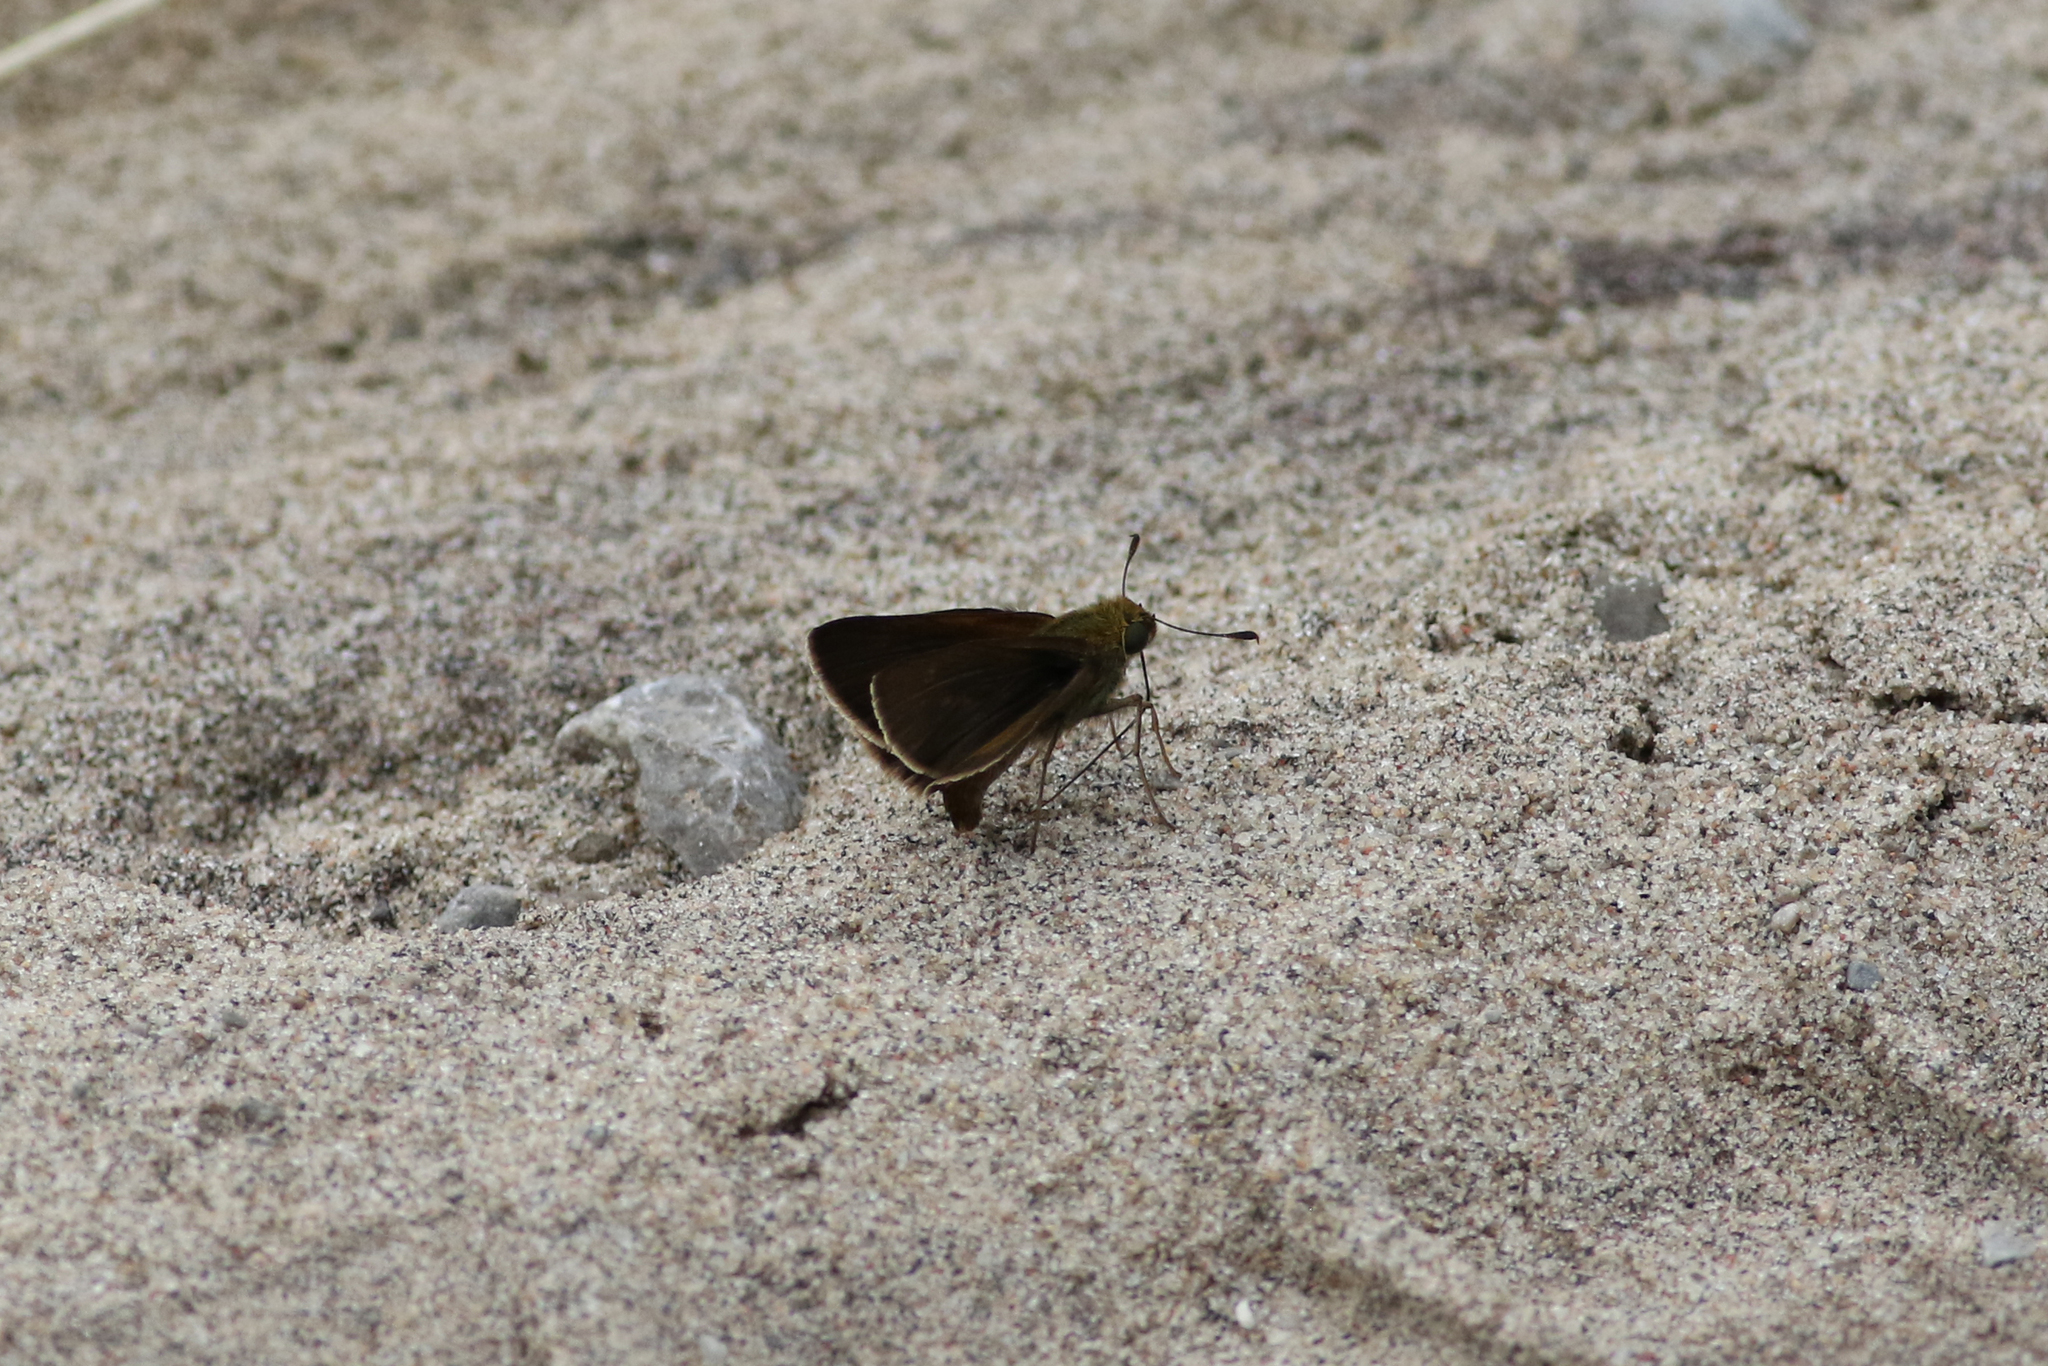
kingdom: Animalia
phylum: Arthropoda
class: Insecta
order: Lepidoptera
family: Hesperiidae
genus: Euphyes
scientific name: Euphyes vestris
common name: Dun skipper
